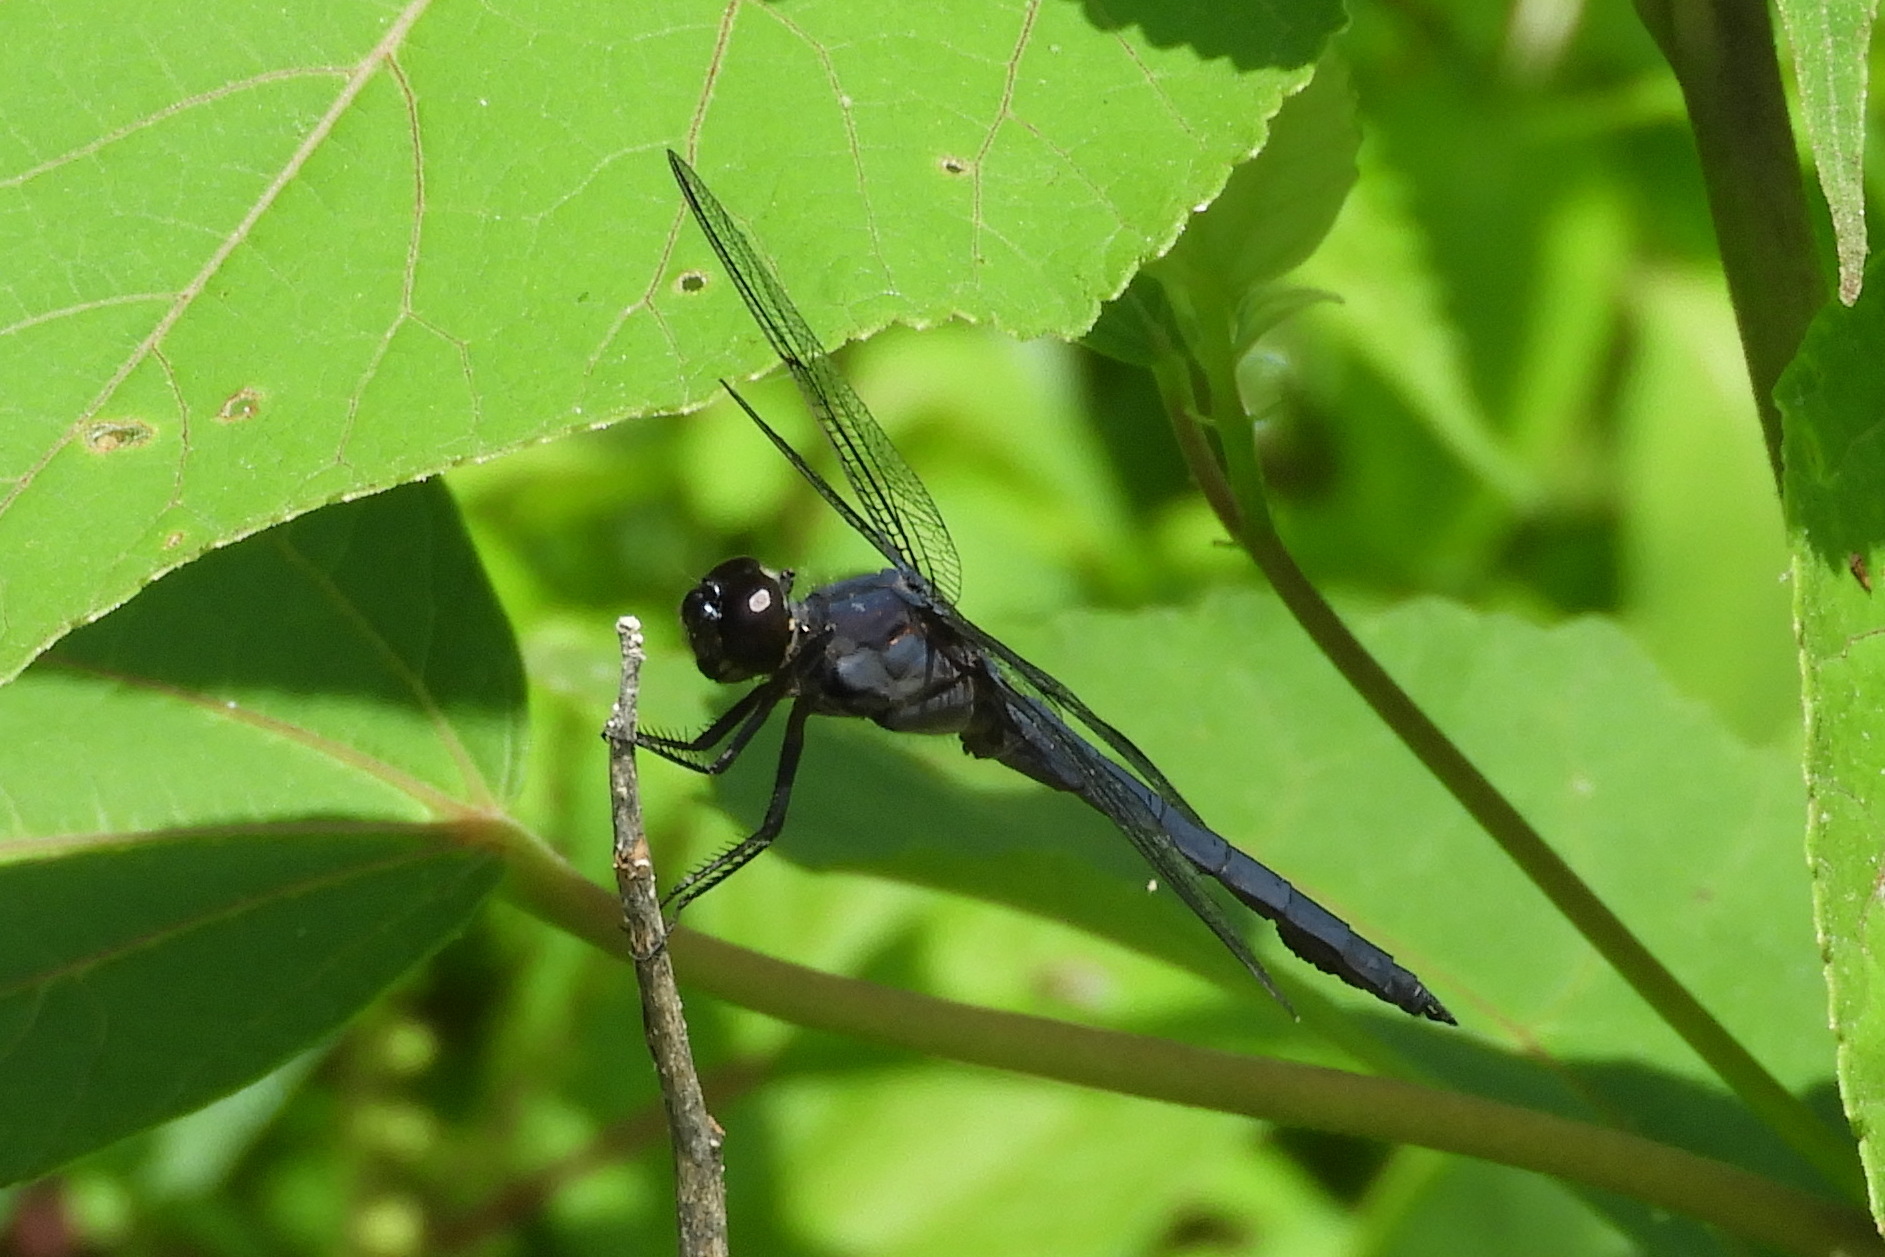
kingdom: Animalia
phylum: Arthropoda
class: Insecta
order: Odonata
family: Libellulidae
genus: Libellula
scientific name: Libellula incesta
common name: Slaty skimmer
